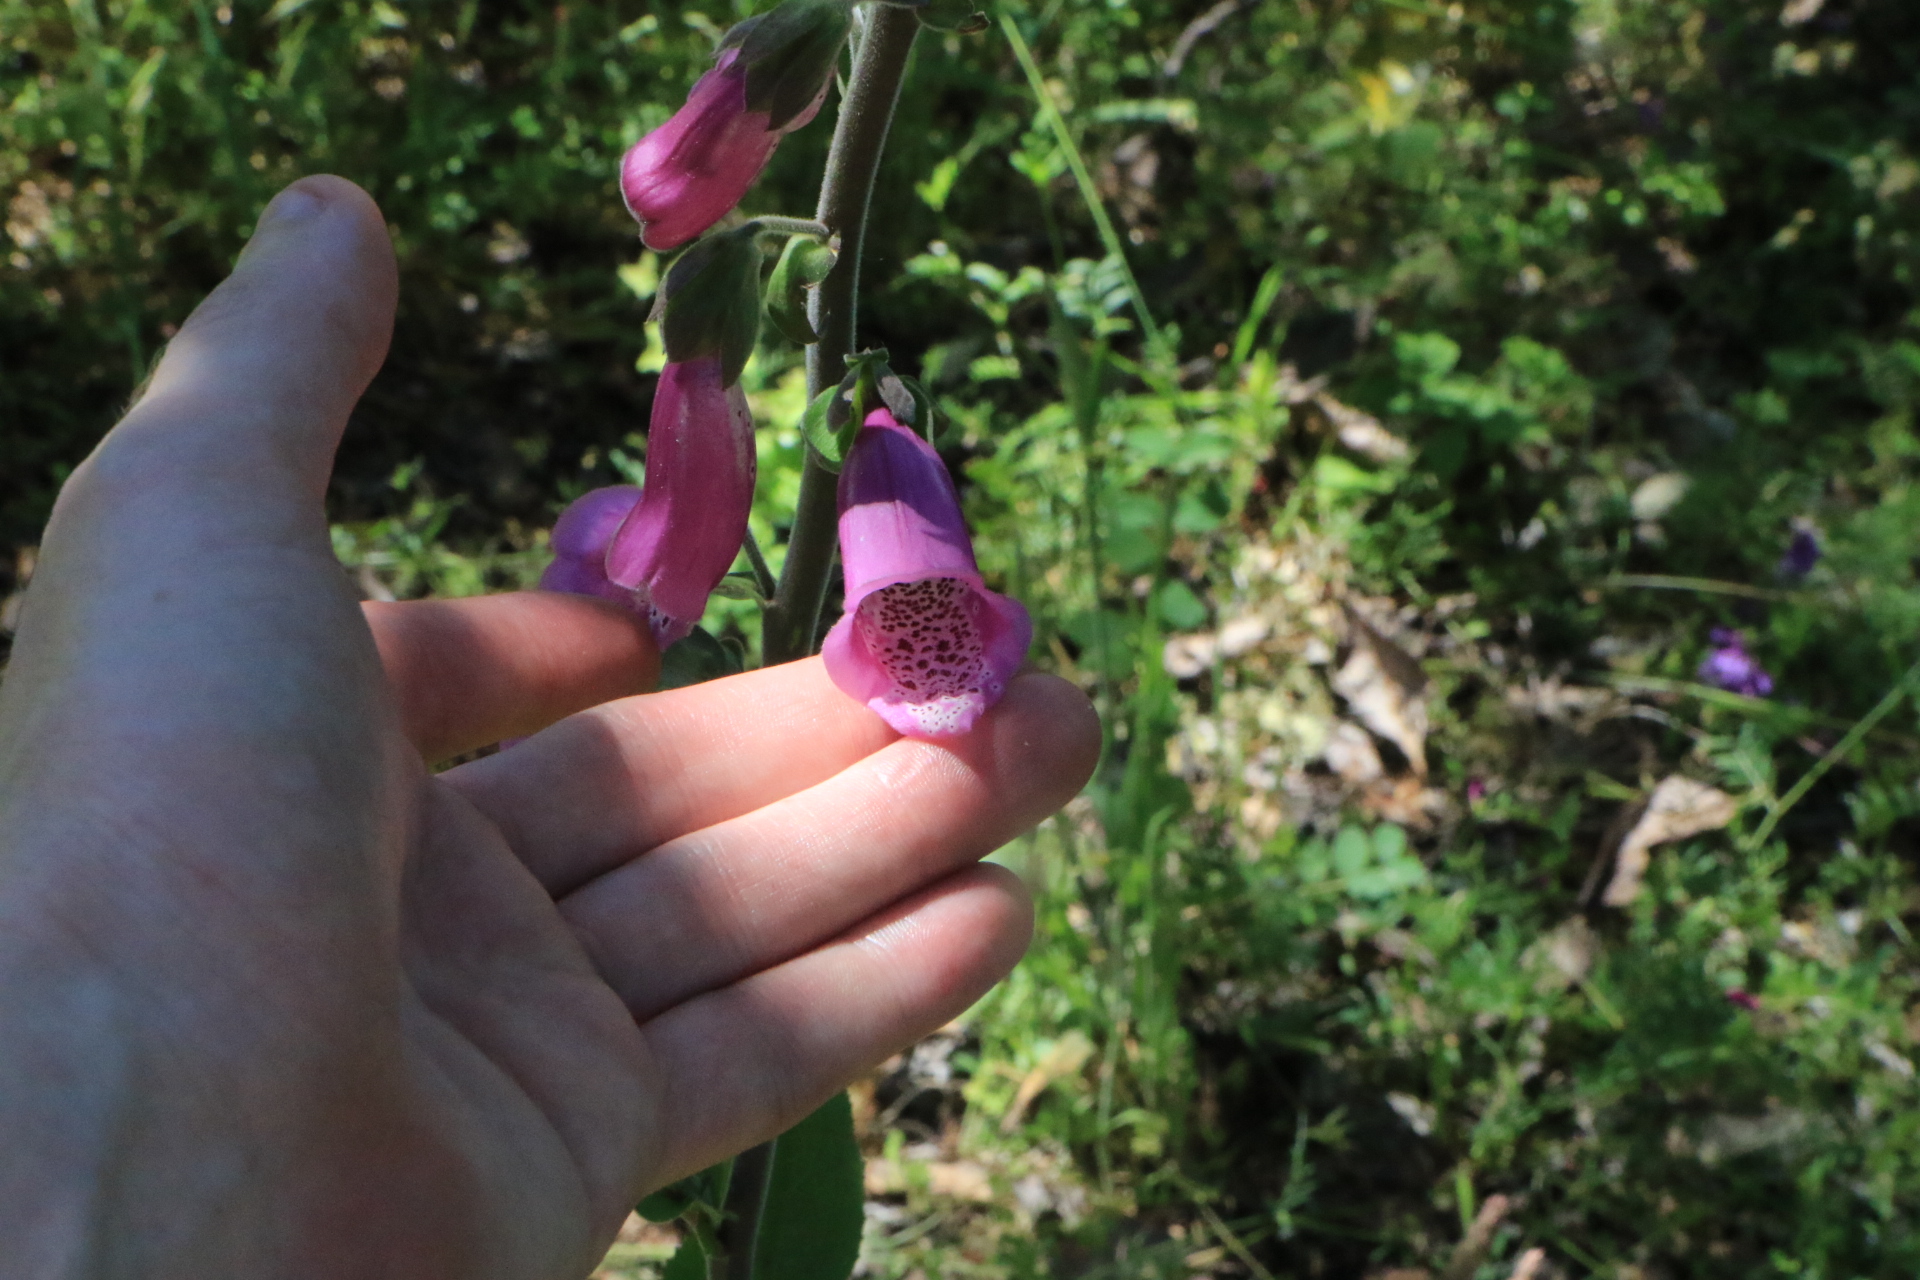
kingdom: Plantae
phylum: Tracheophyta
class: Magnoliopsida
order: Lamiales
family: Plantaginaceae
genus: Digitalis
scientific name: Digitalis purpurea
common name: Foxglove
